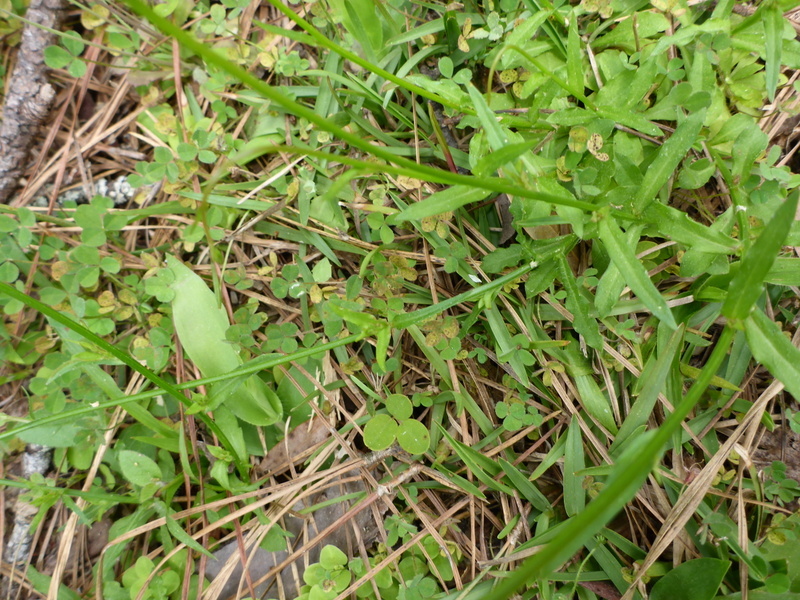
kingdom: Plantae
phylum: Tracheophyta
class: Magnoliopsida
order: Asterales
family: Campanulaceae
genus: Wahlenbergia
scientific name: Wahlenbergia marginata
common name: Southern rockbell
